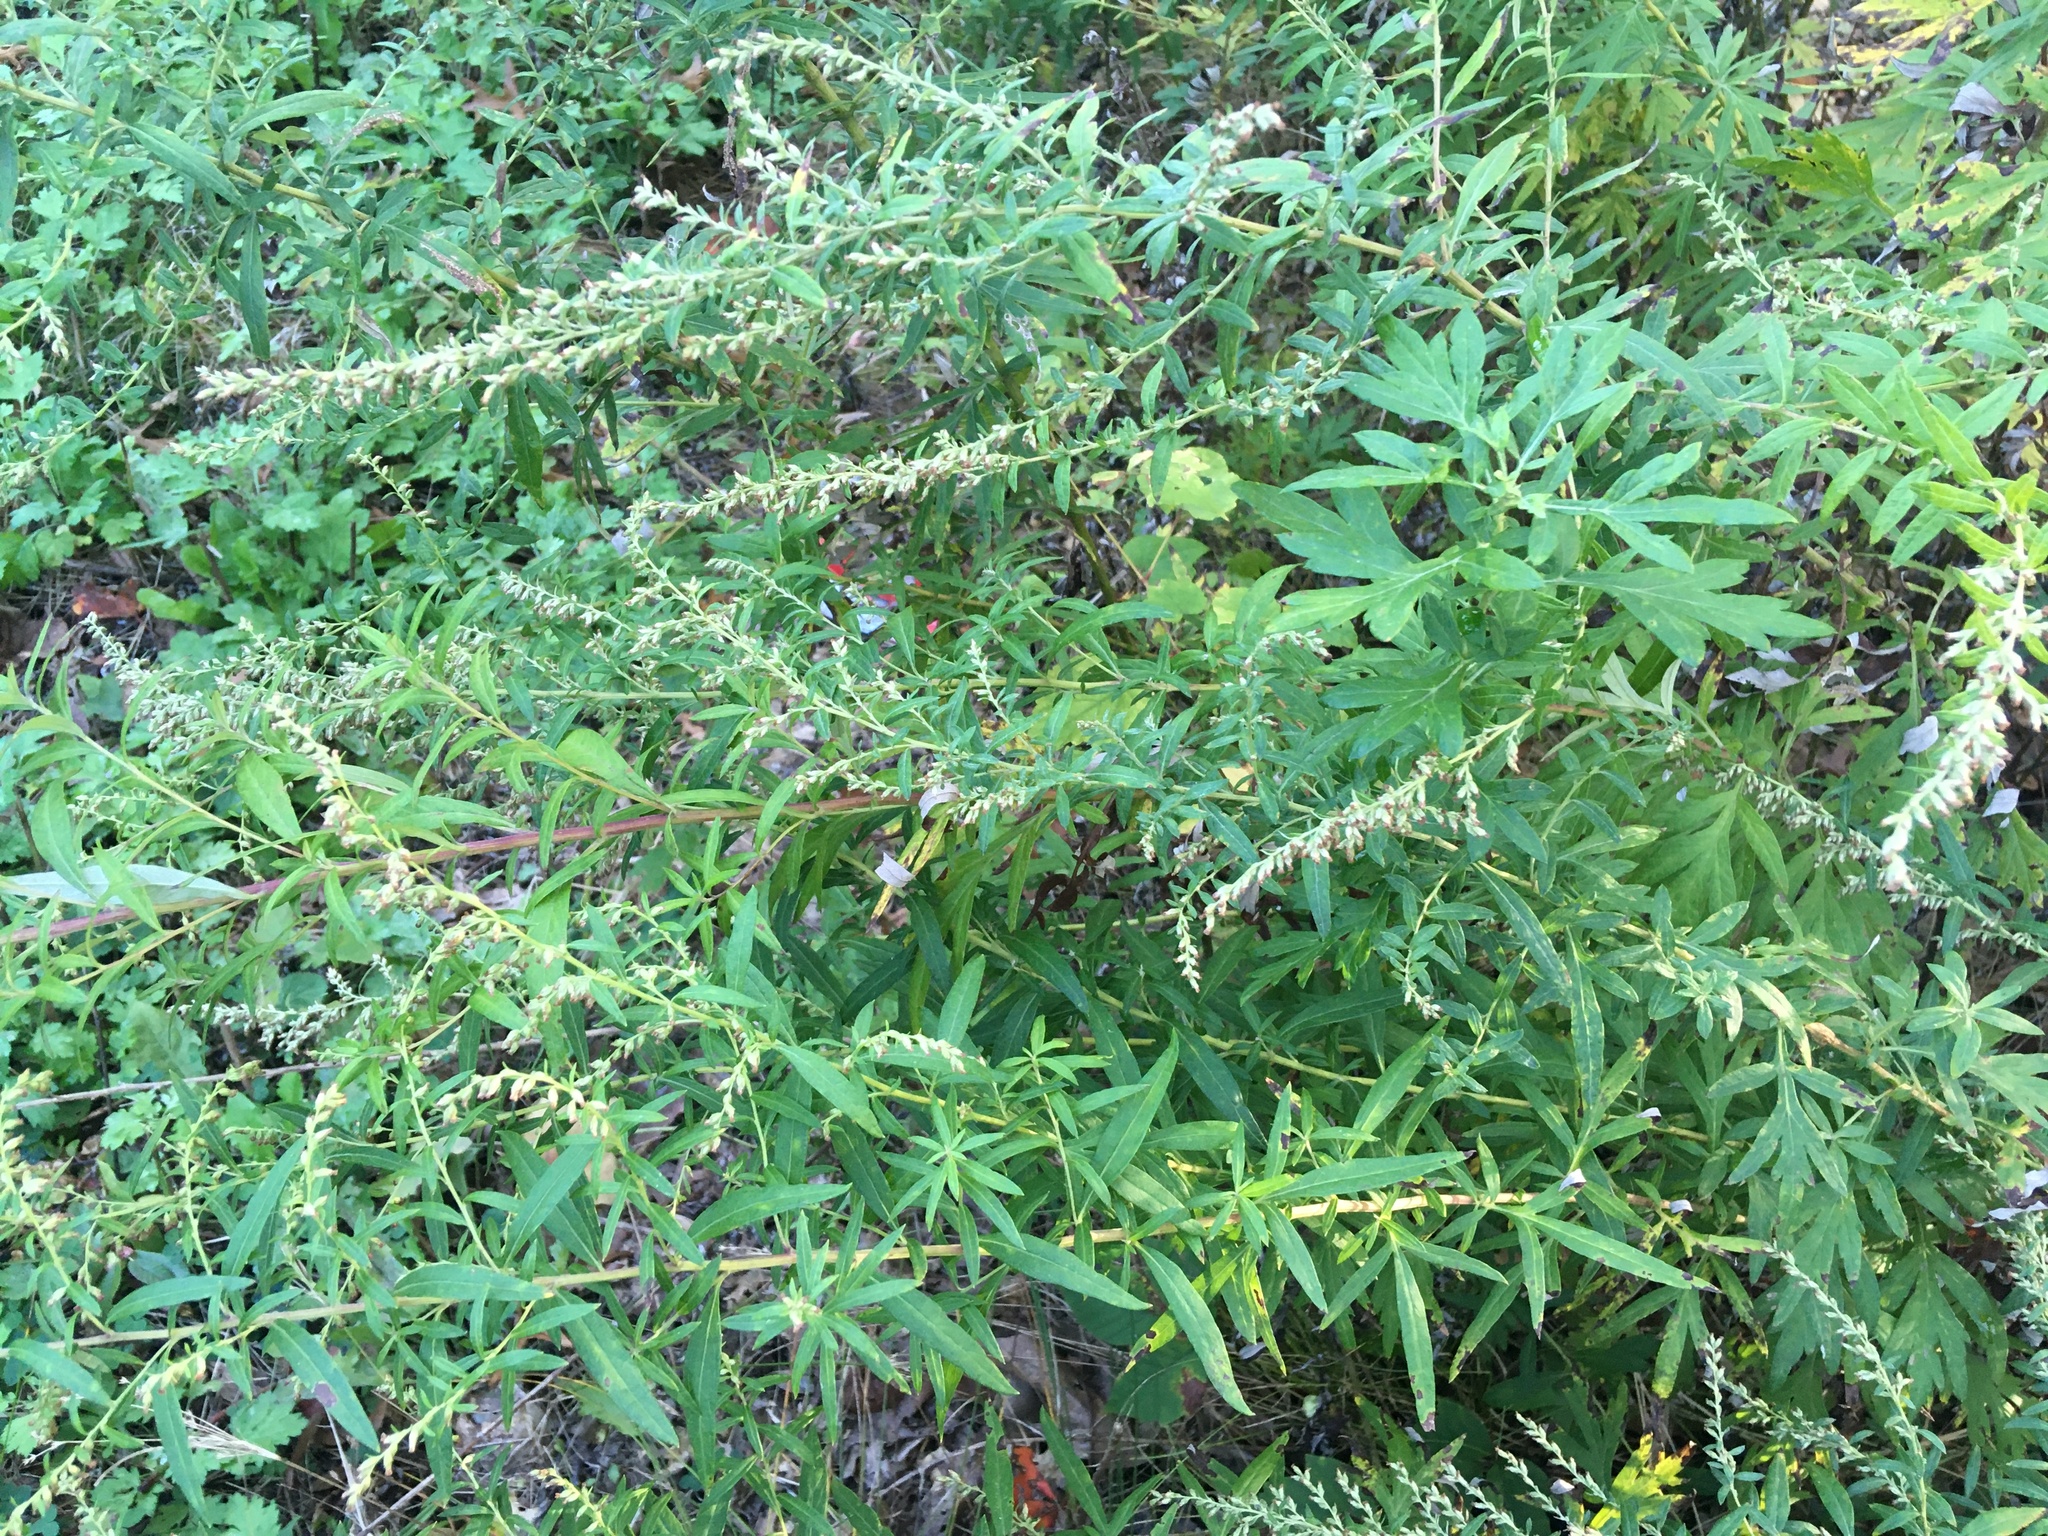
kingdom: Plantae
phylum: Tracheophyta
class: Magnoliopsida
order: Asterales
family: Asteraceae
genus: Artemisia
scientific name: Artemisia vulgaris
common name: Mugwort
